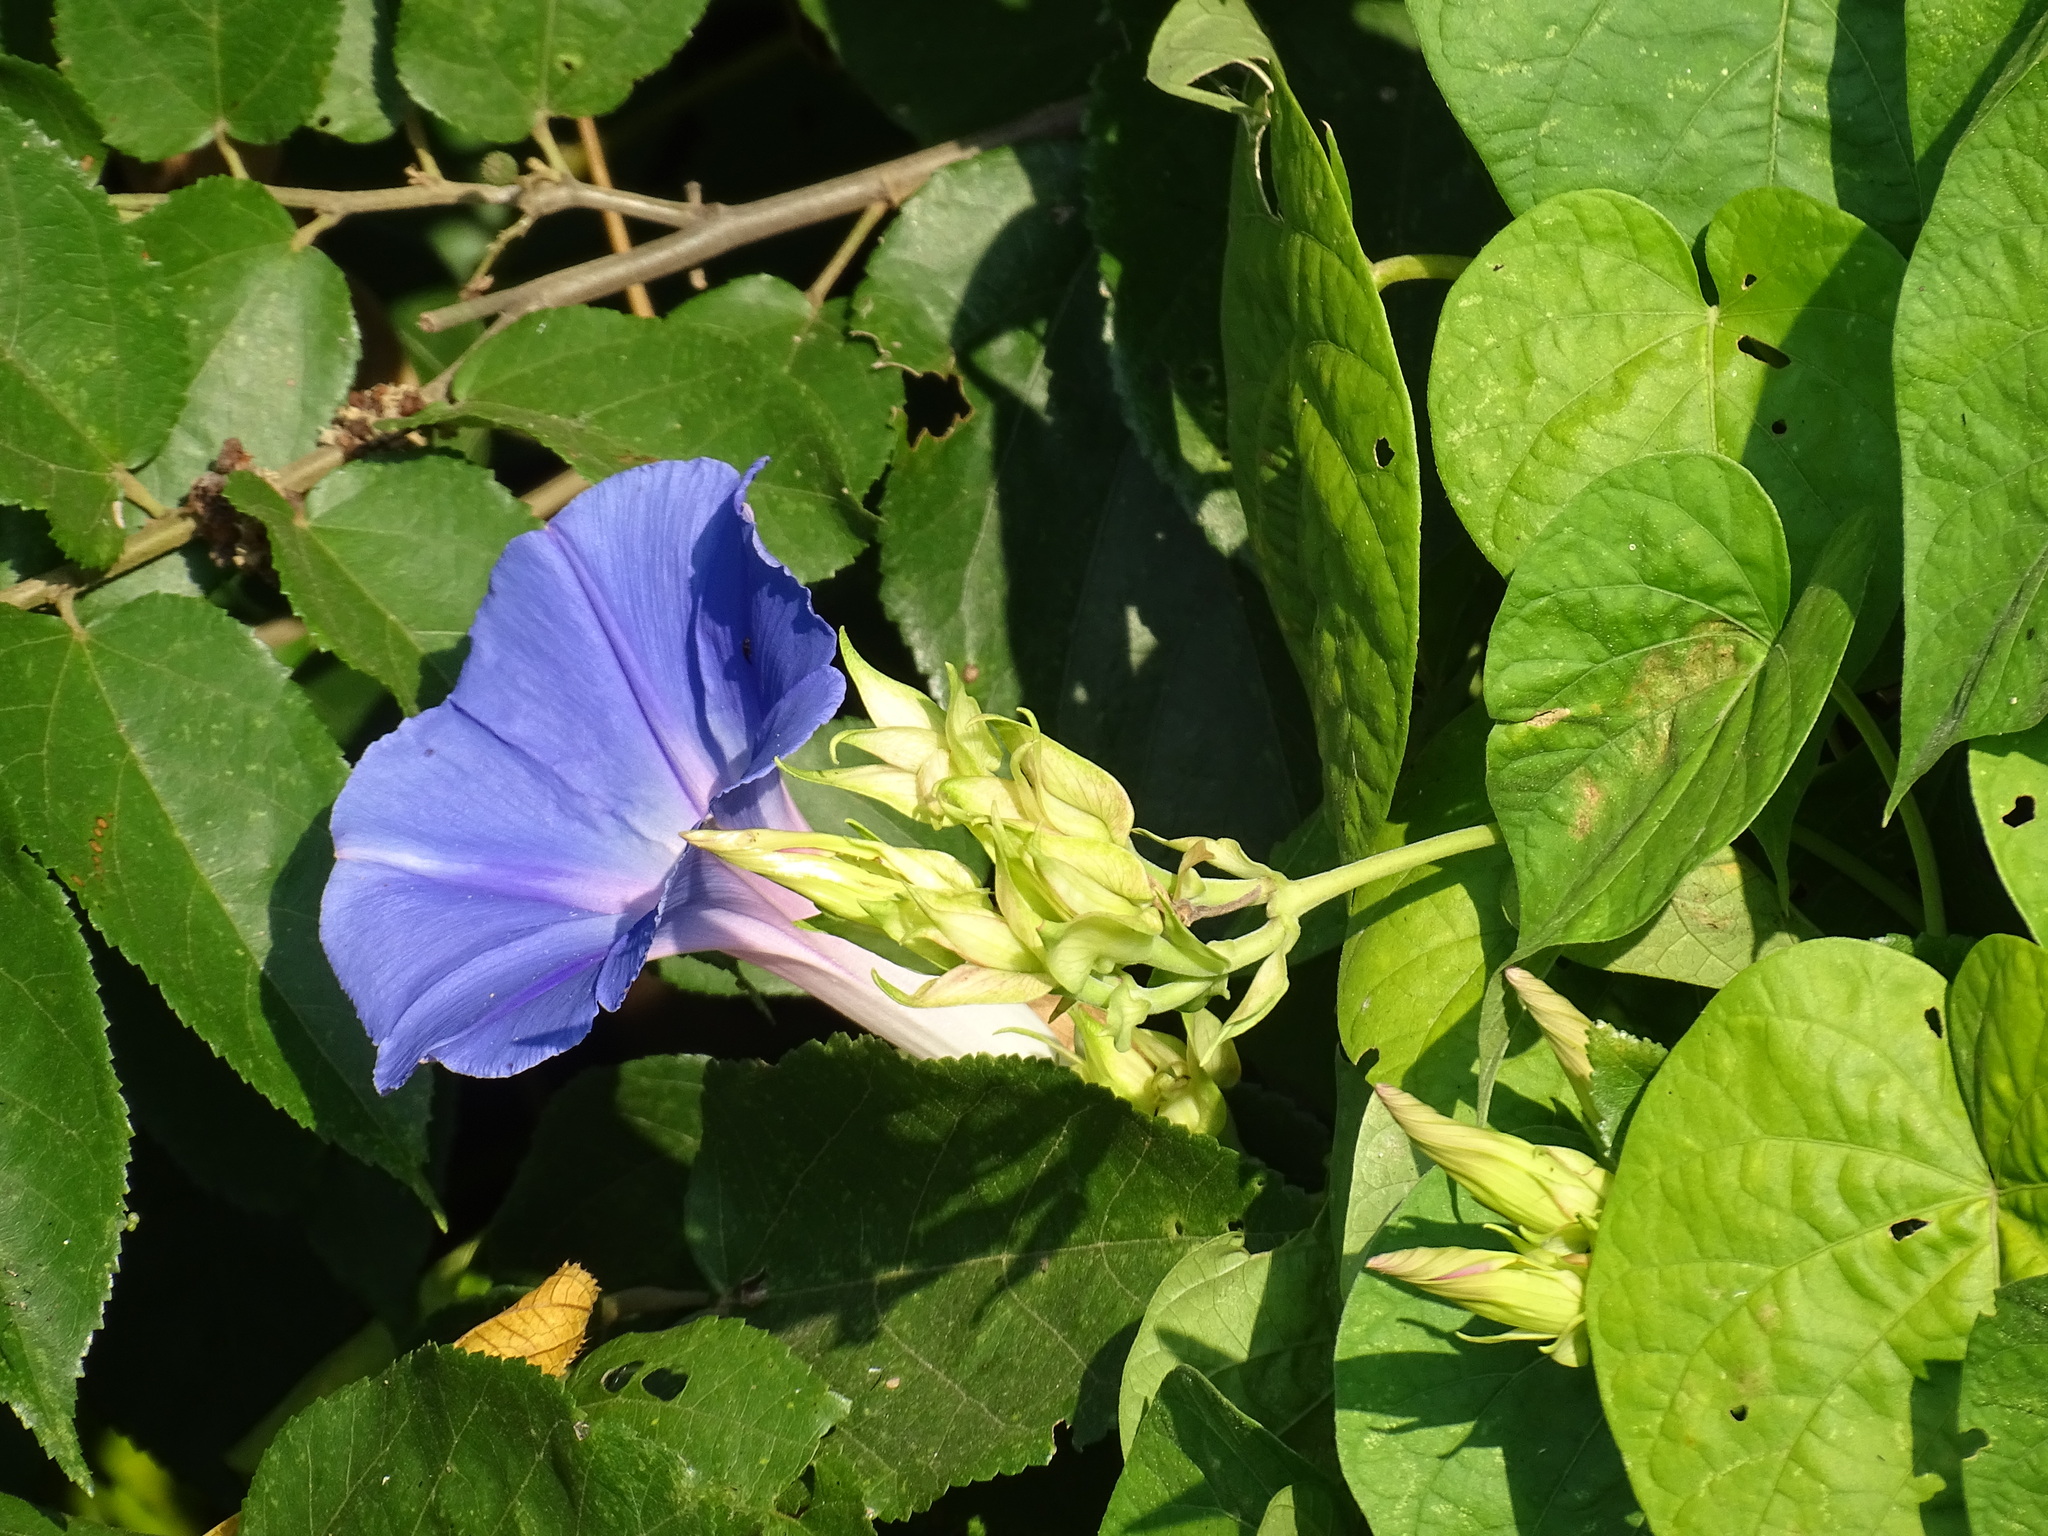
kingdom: Plantae
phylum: Tracheophyta
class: Magnoliopsida
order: Solanales
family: Convolvulaceae
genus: Ipomoea
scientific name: Ipomoea indica
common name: Blue dawnflower
